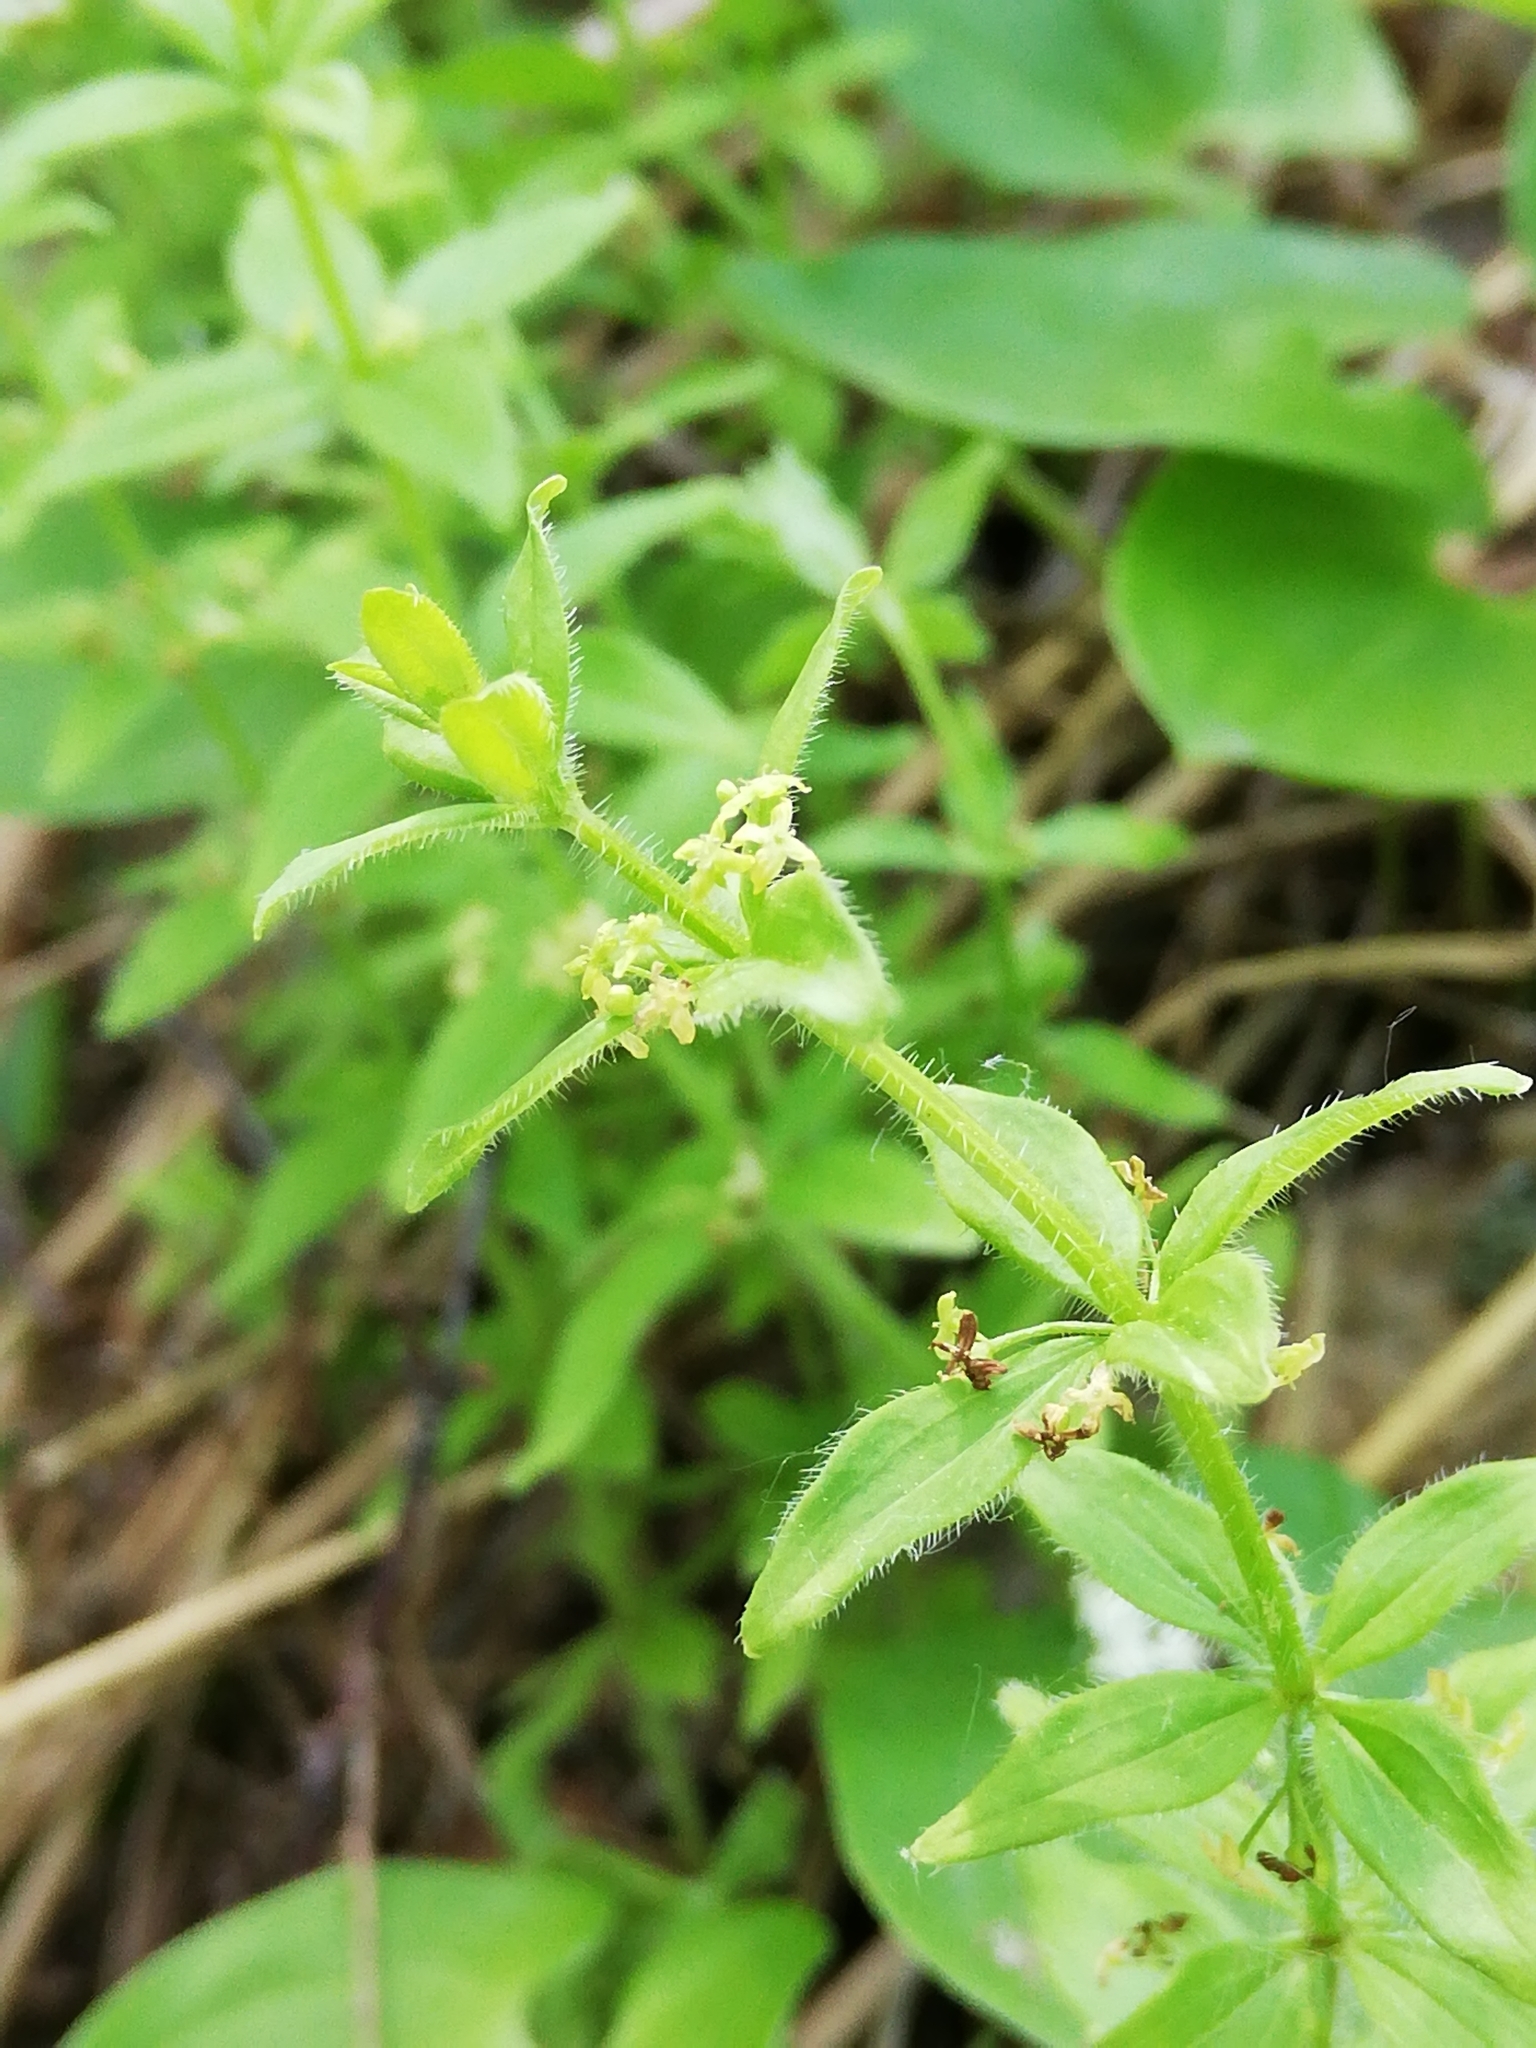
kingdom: Plantae
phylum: Tracheophyta
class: Magnoliopsida
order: Gentianales
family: Rubiaceae
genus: Cruciata
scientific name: Cruciata glabra
